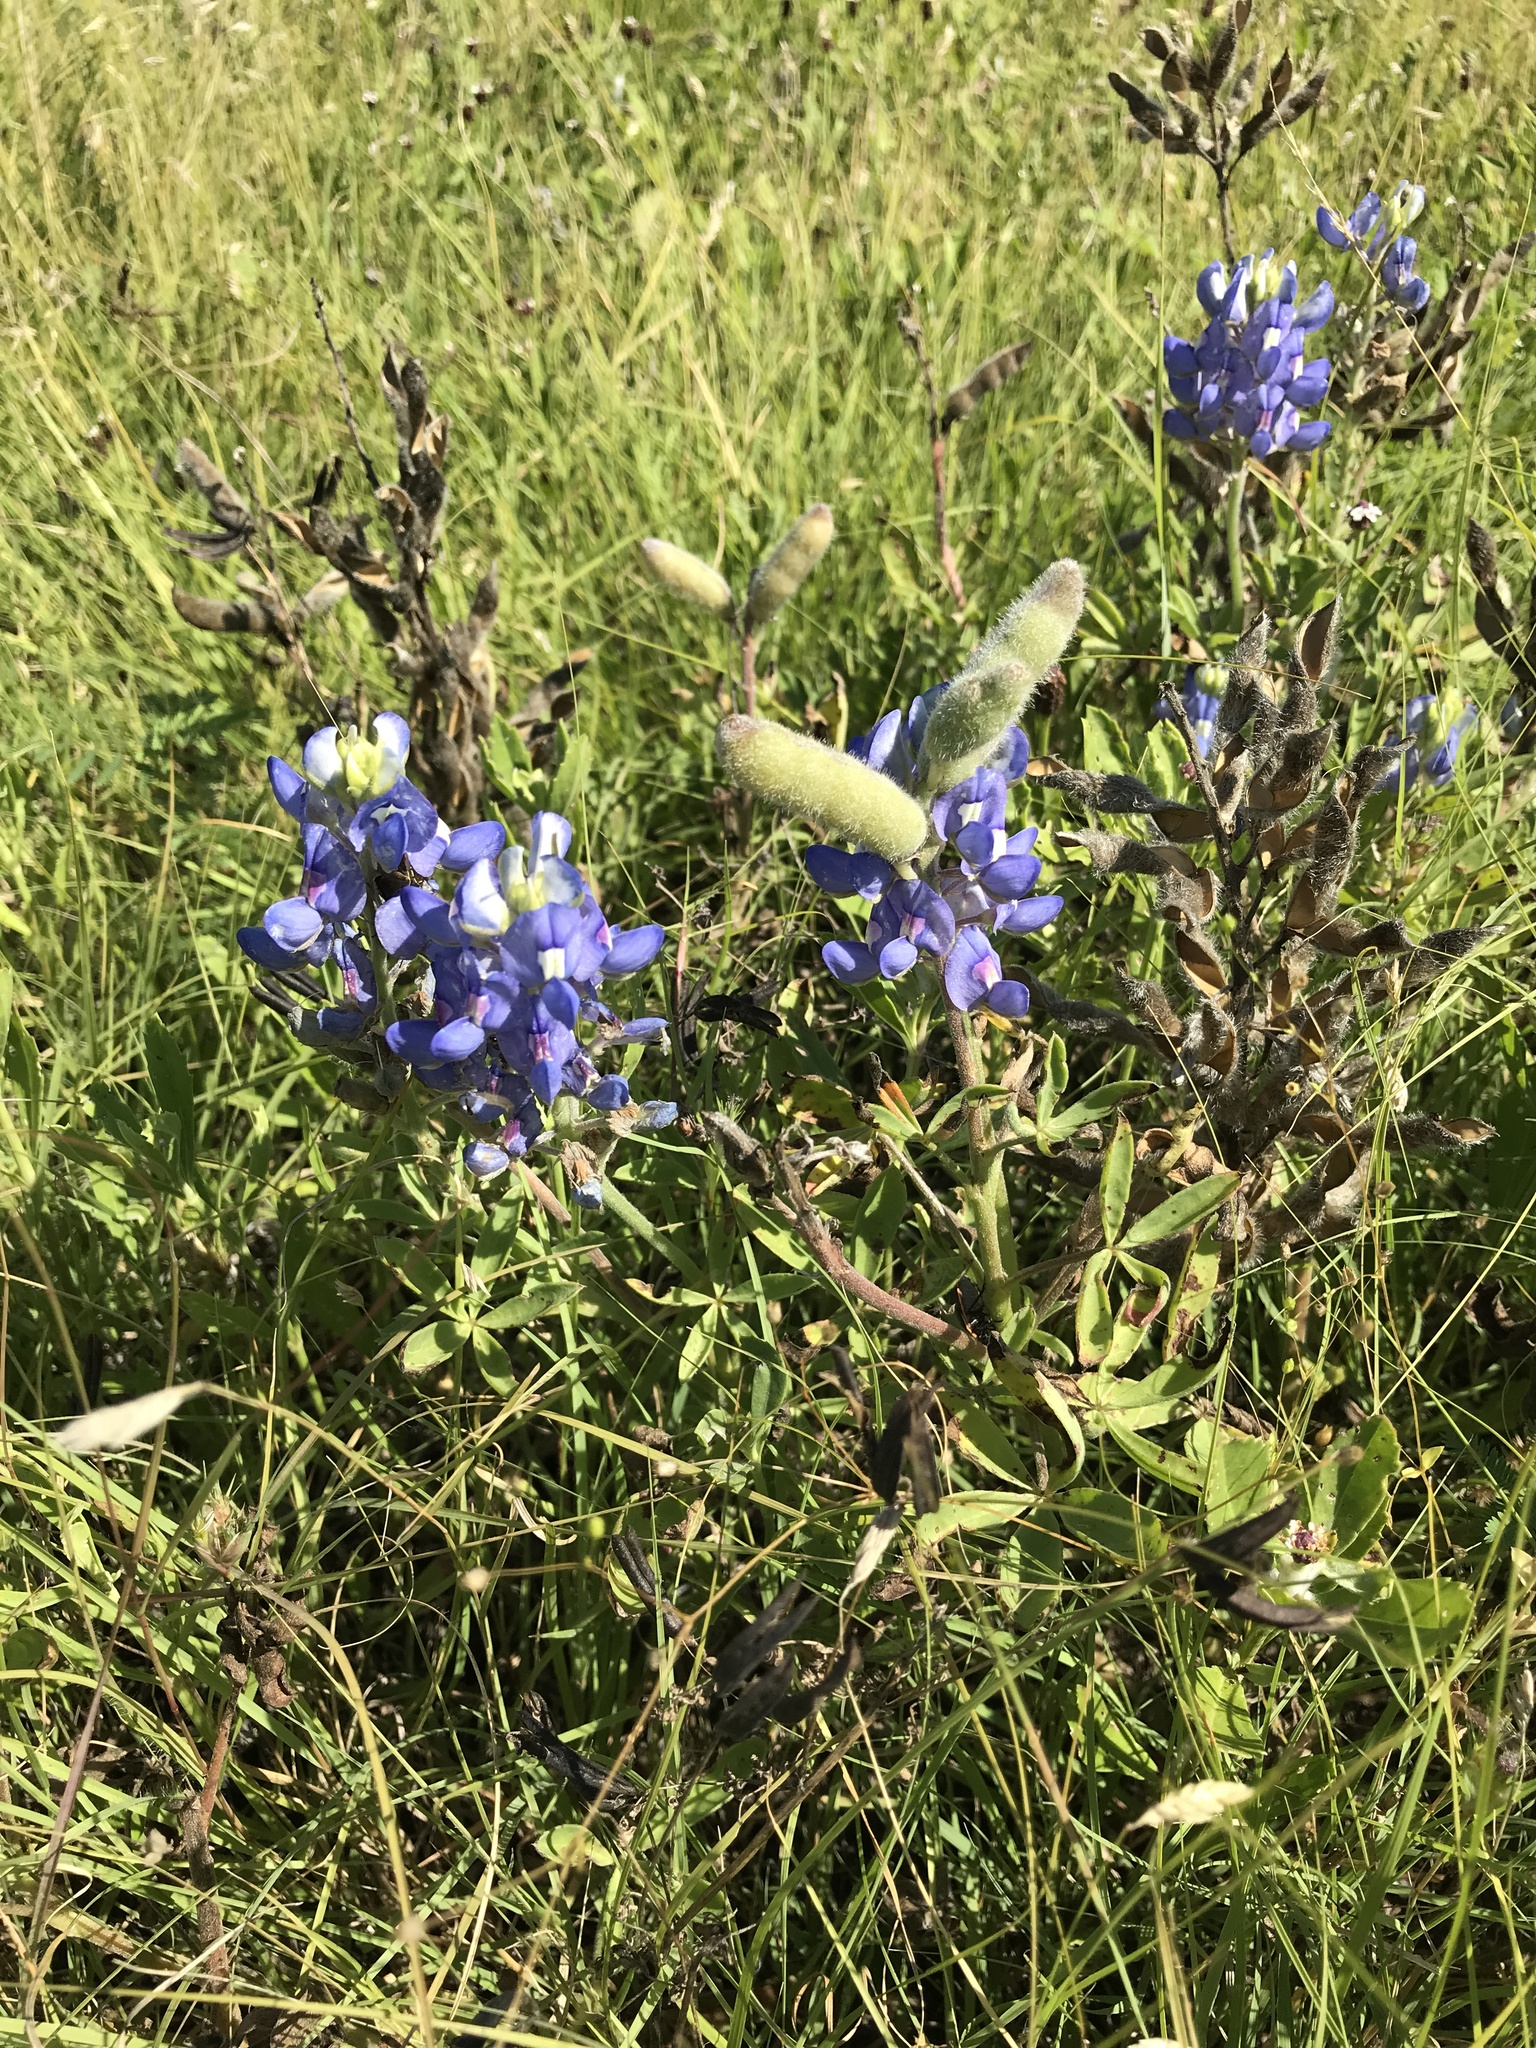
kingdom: Plantae
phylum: Tracheophyta
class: Magnoliopsida
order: Fabales
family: Fabaceae
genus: Lupinus
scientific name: Lupinus texensis
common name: Texas bluebonnet
